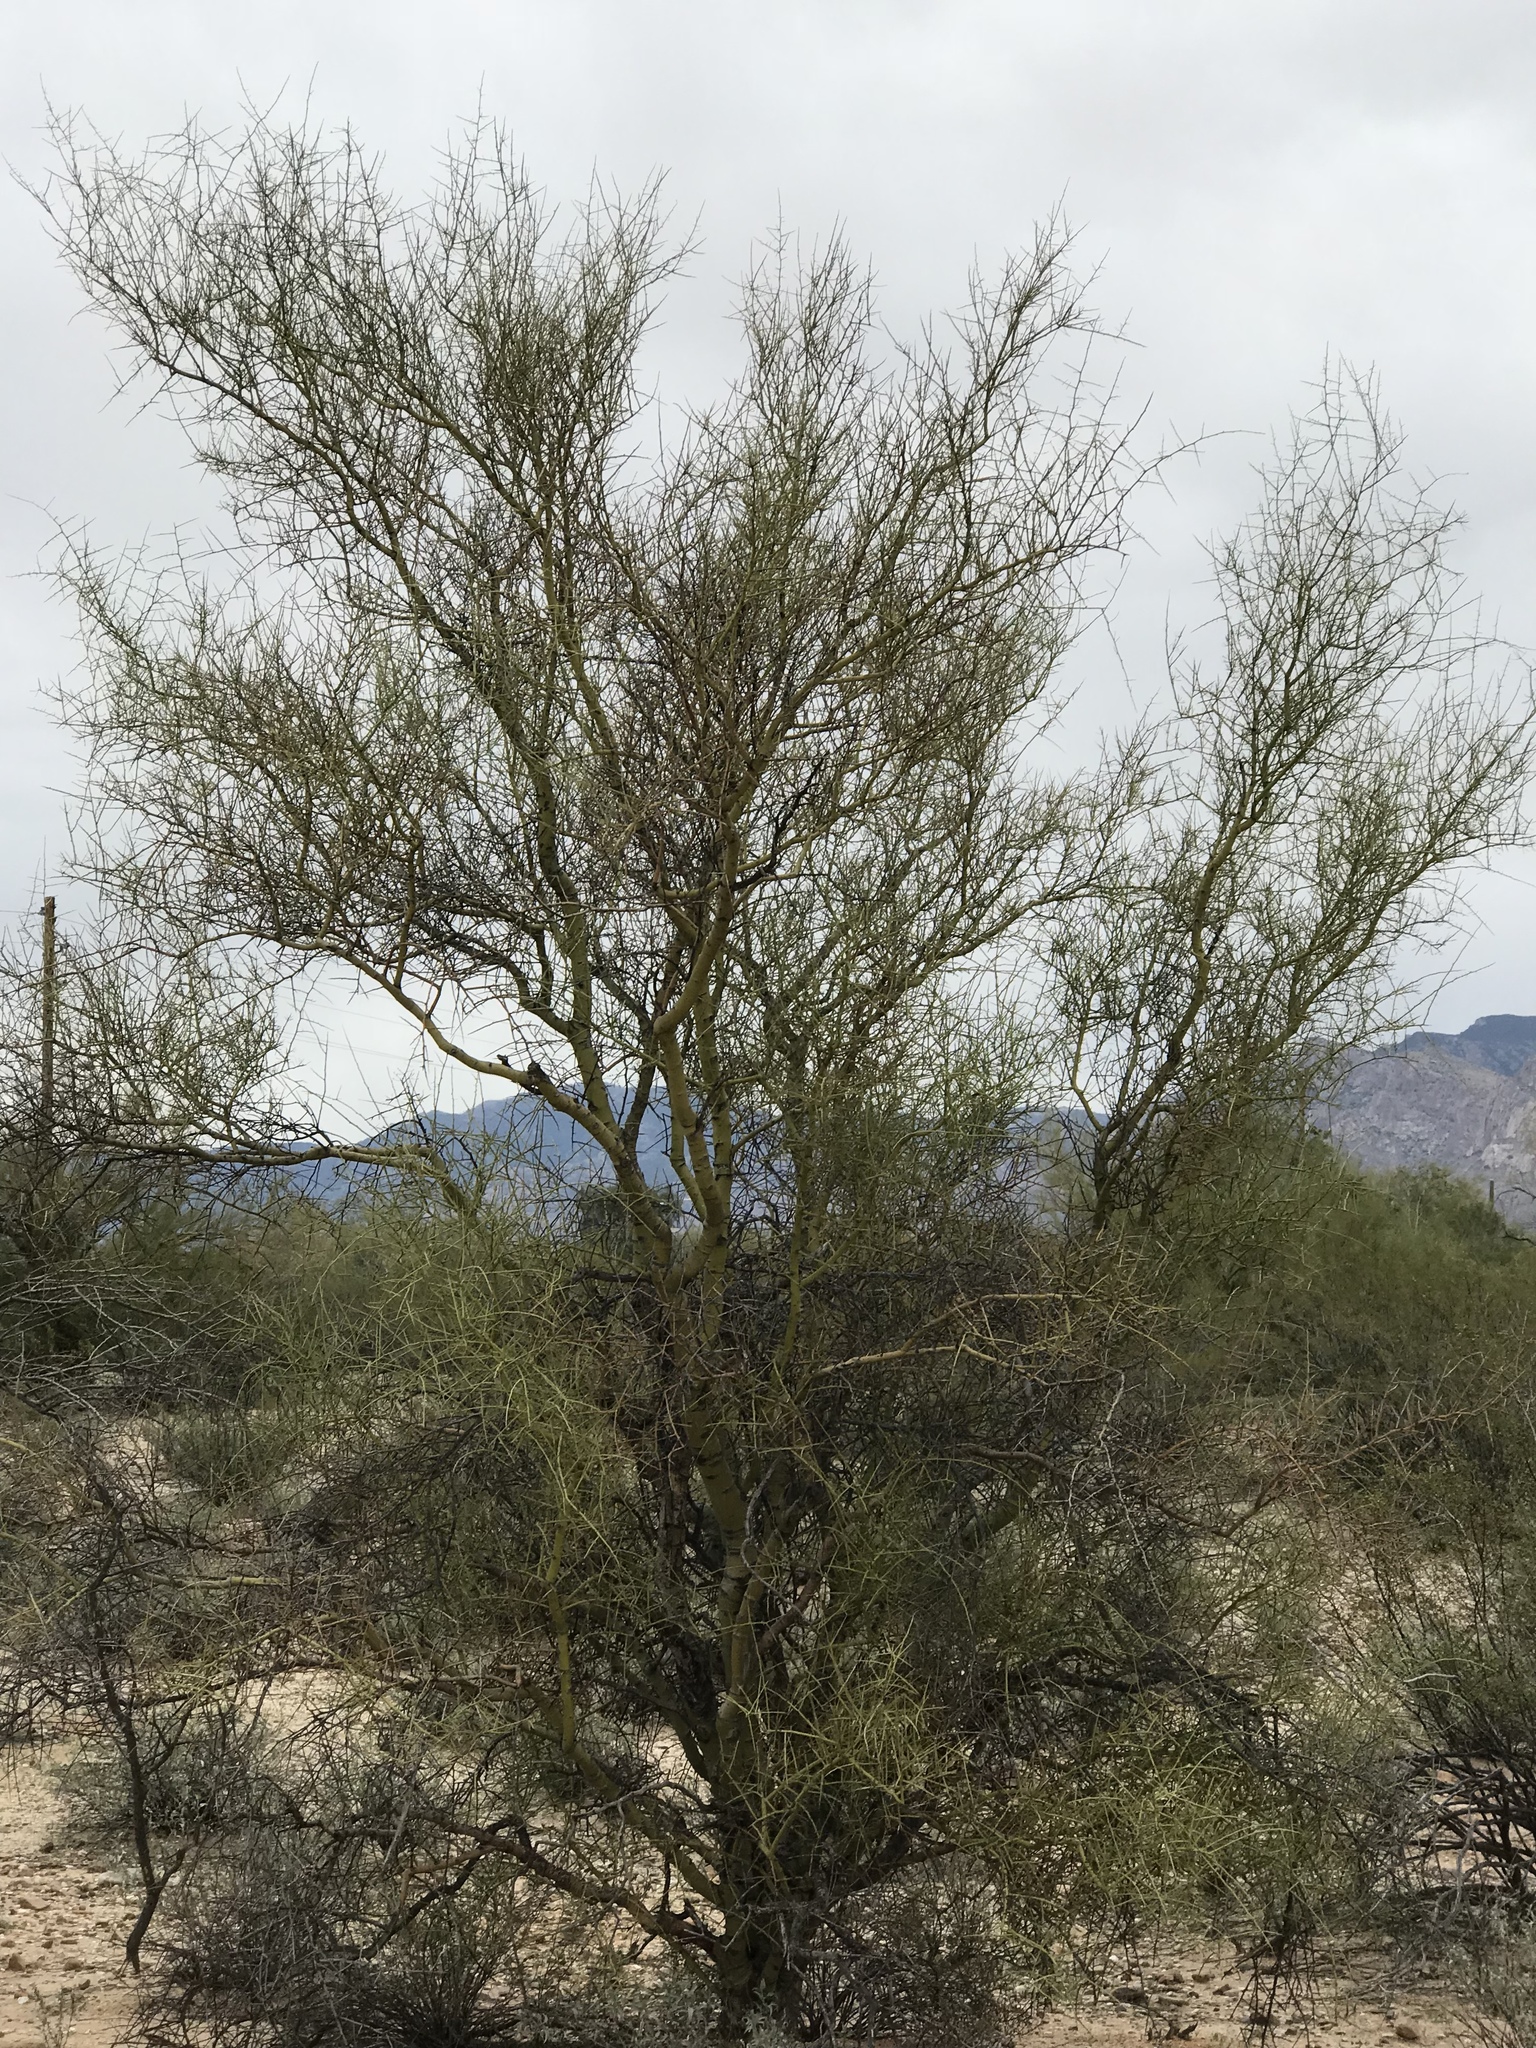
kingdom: Plantae
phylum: Tracheophyta
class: Magnoliopsida
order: Fabales
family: Fabaceae
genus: Parkinsonia
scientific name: Parkinsonia microphylla
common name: Yellow paloverde
